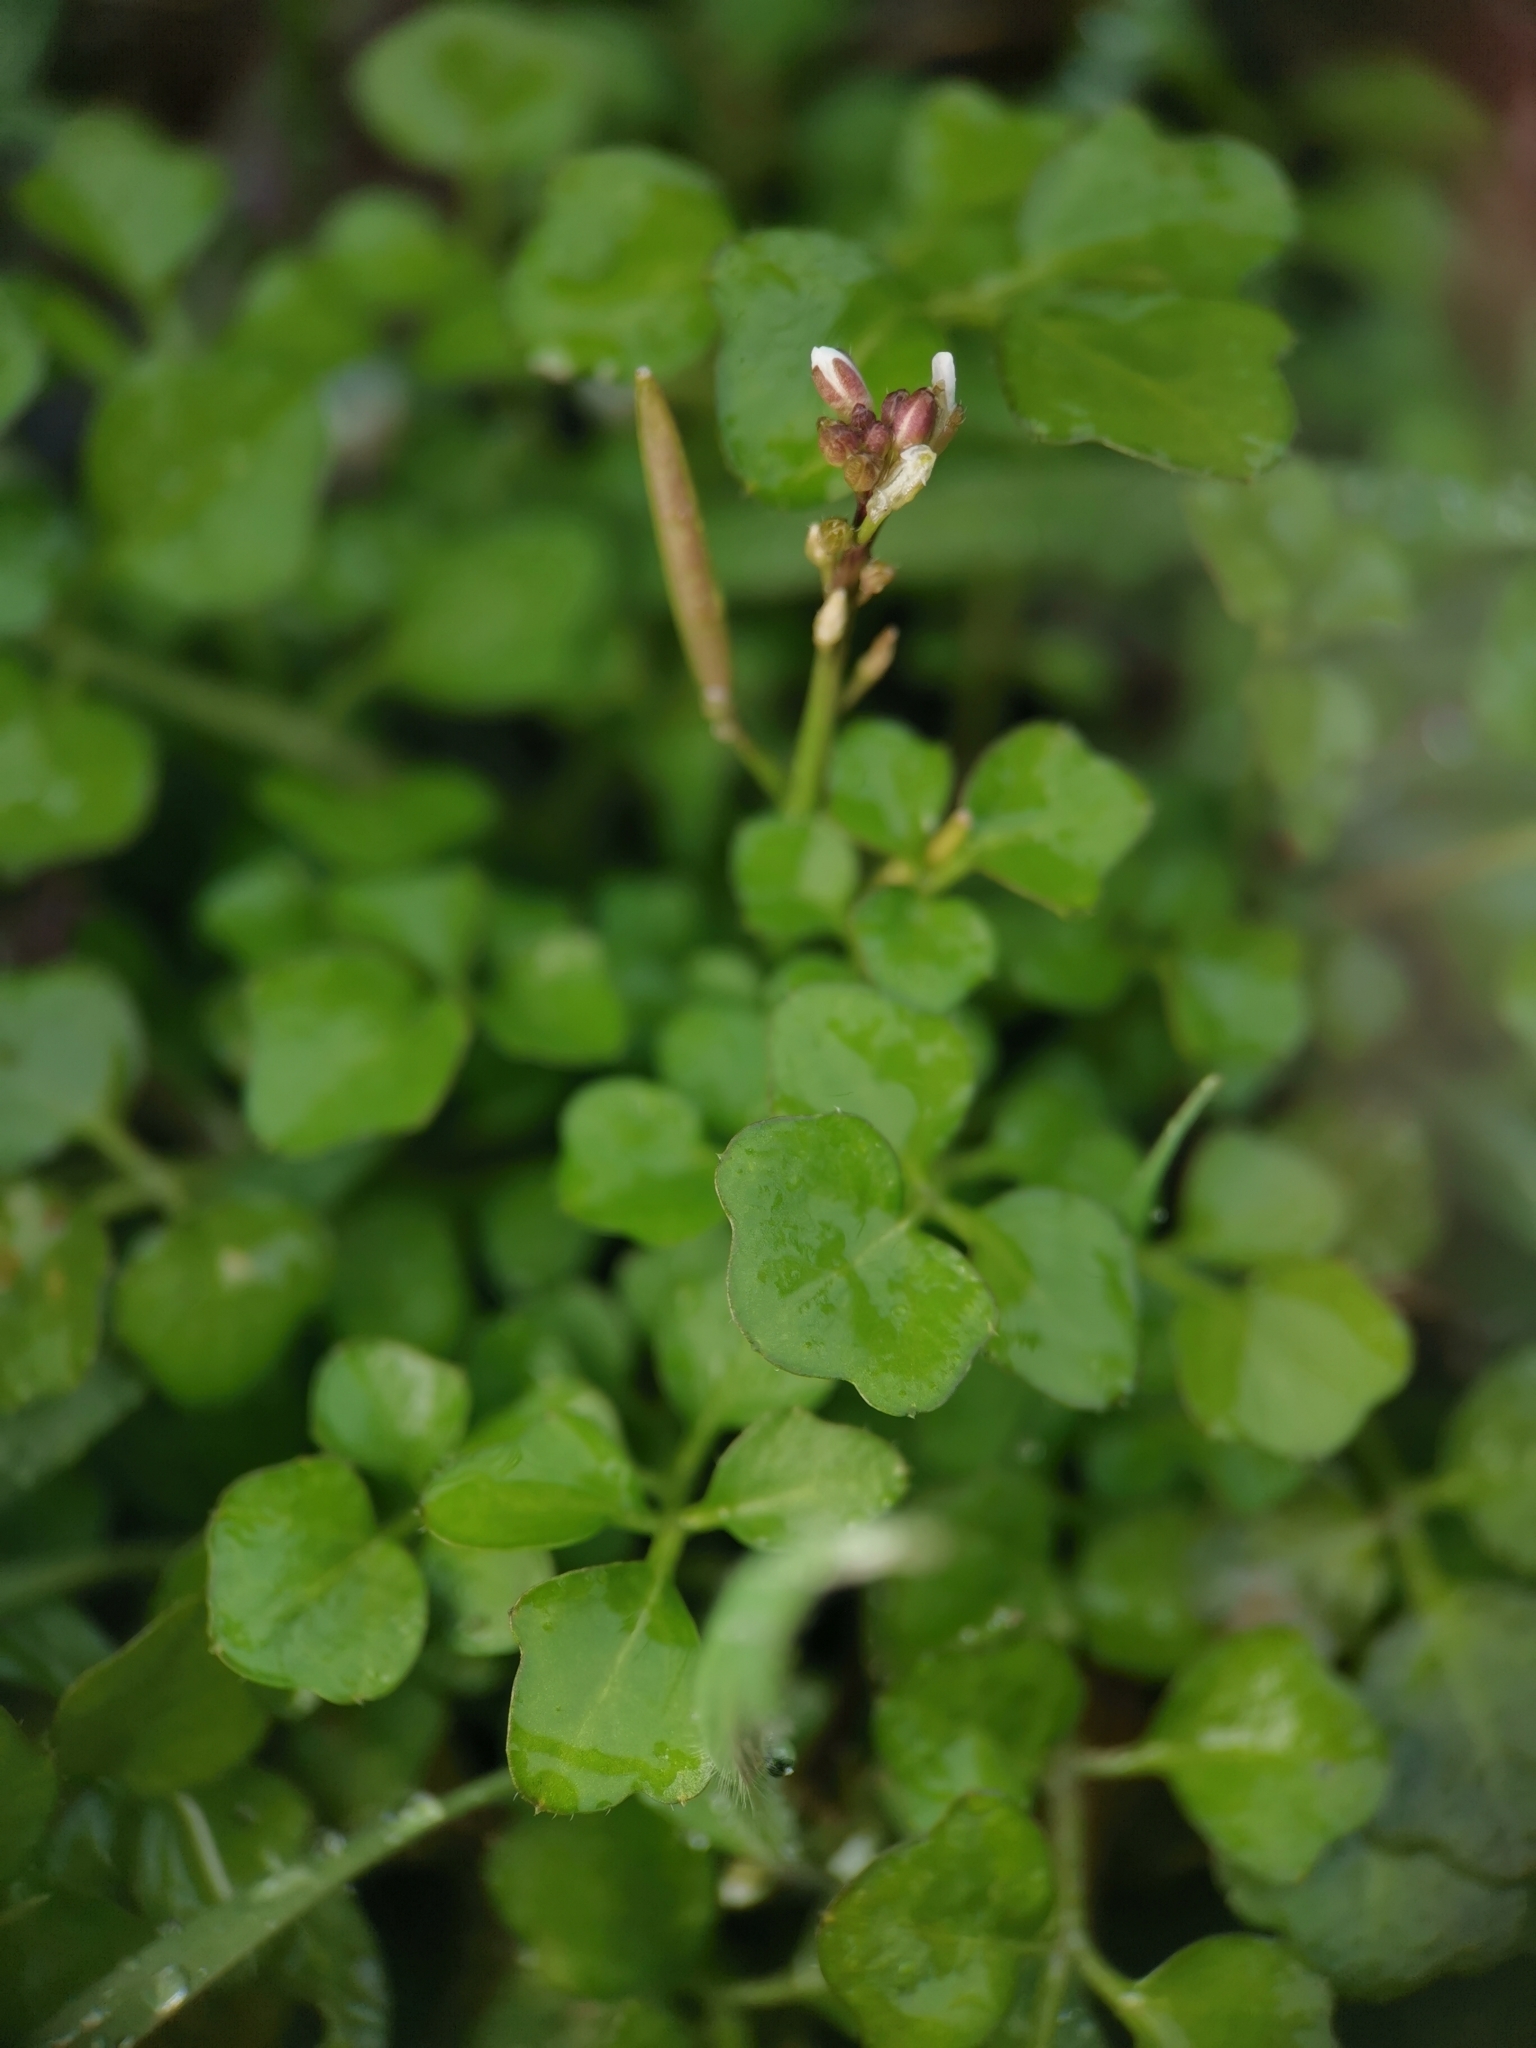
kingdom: Plantae
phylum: Tracheophyta
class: Magnoliopsida
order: Brassicales
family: Brassicaceae
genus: Cardamine
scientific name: Cardamine hirsuta
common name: Hairy bittercress
